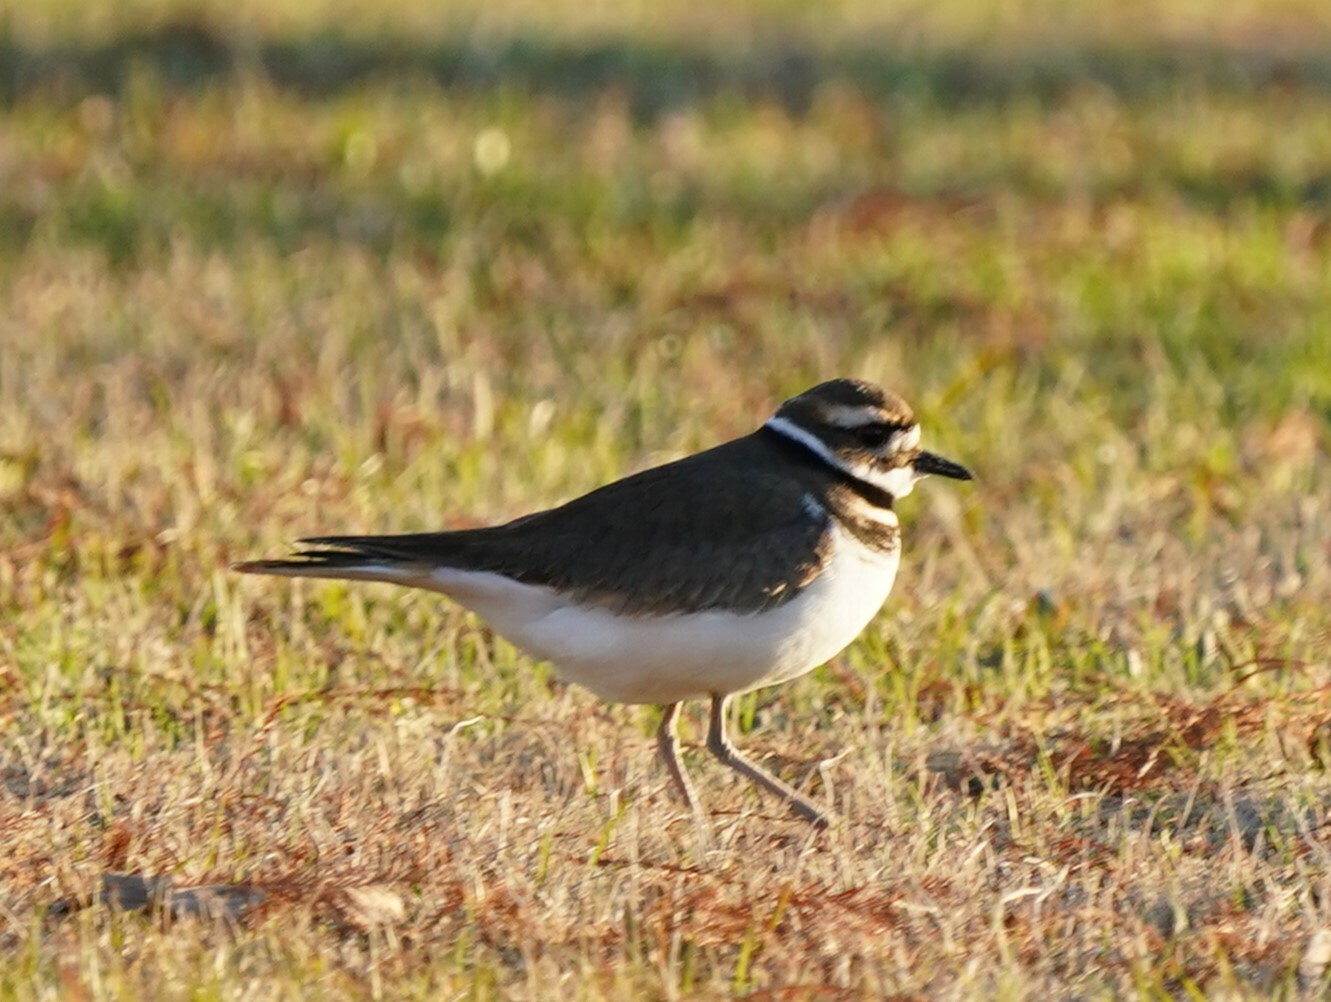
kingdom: Animalia
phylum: Chordata
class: Aves
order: Charadriiformes
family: Charadriidae
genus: Charadrius
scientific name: Charadrius vociferus
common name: Killdeer
